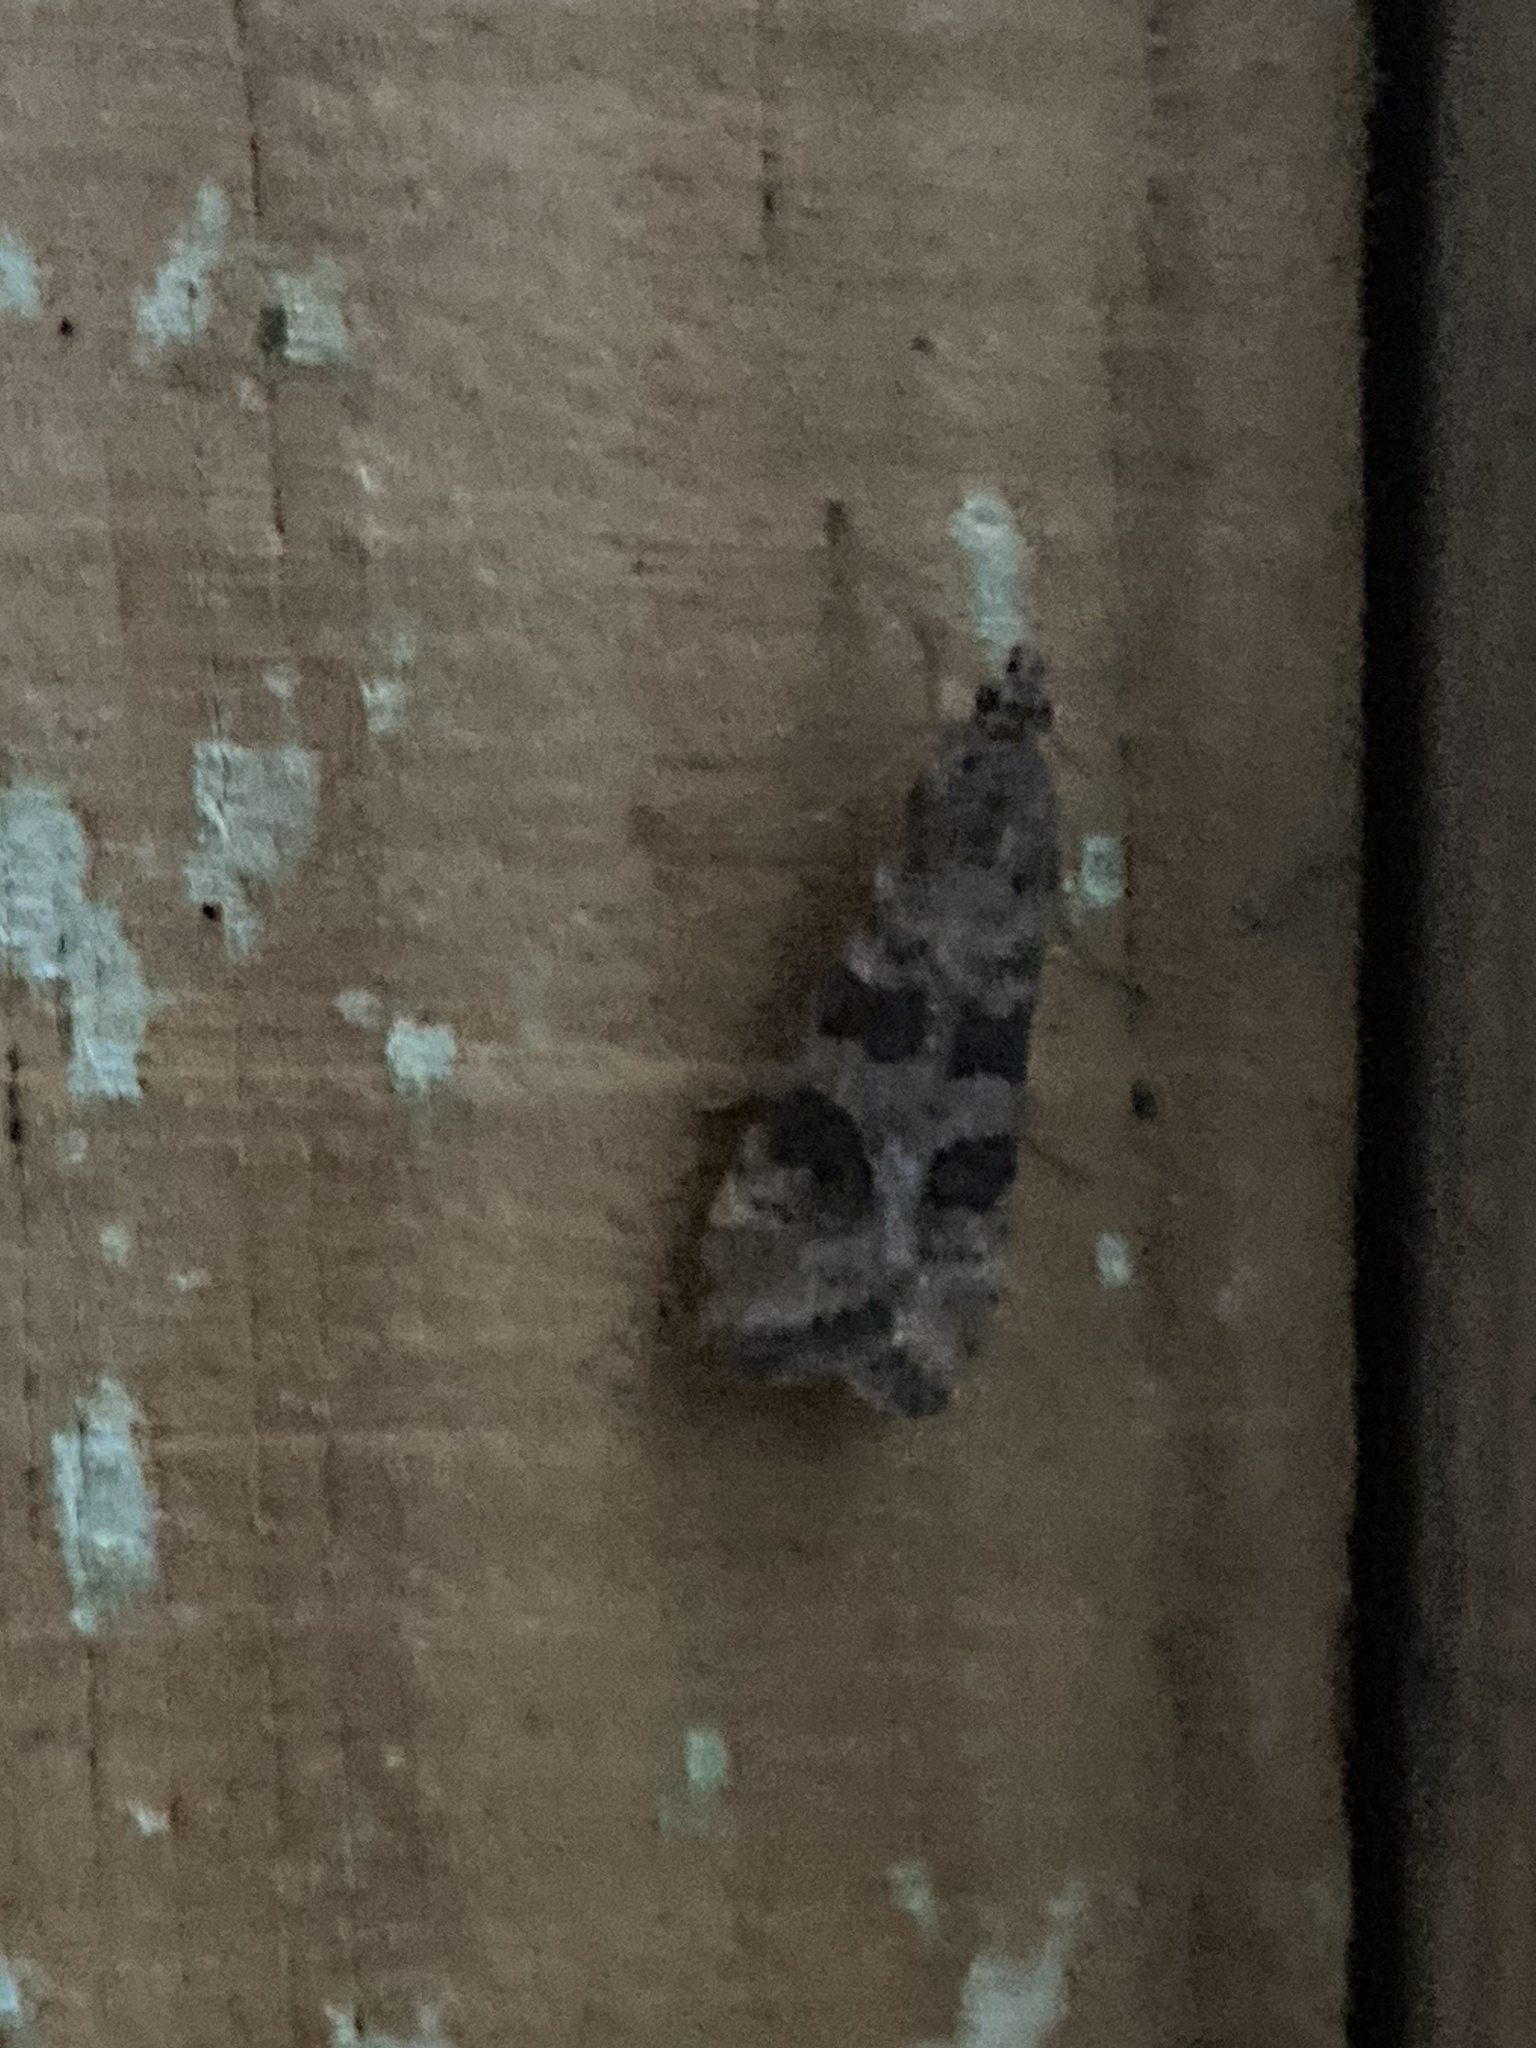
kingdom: Animalia
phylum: Arthropoda
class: Insecta
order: Lepidoptera
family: Crambidae
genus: Nomophila
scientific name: Nomophila noctuella
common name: Rush veneer
